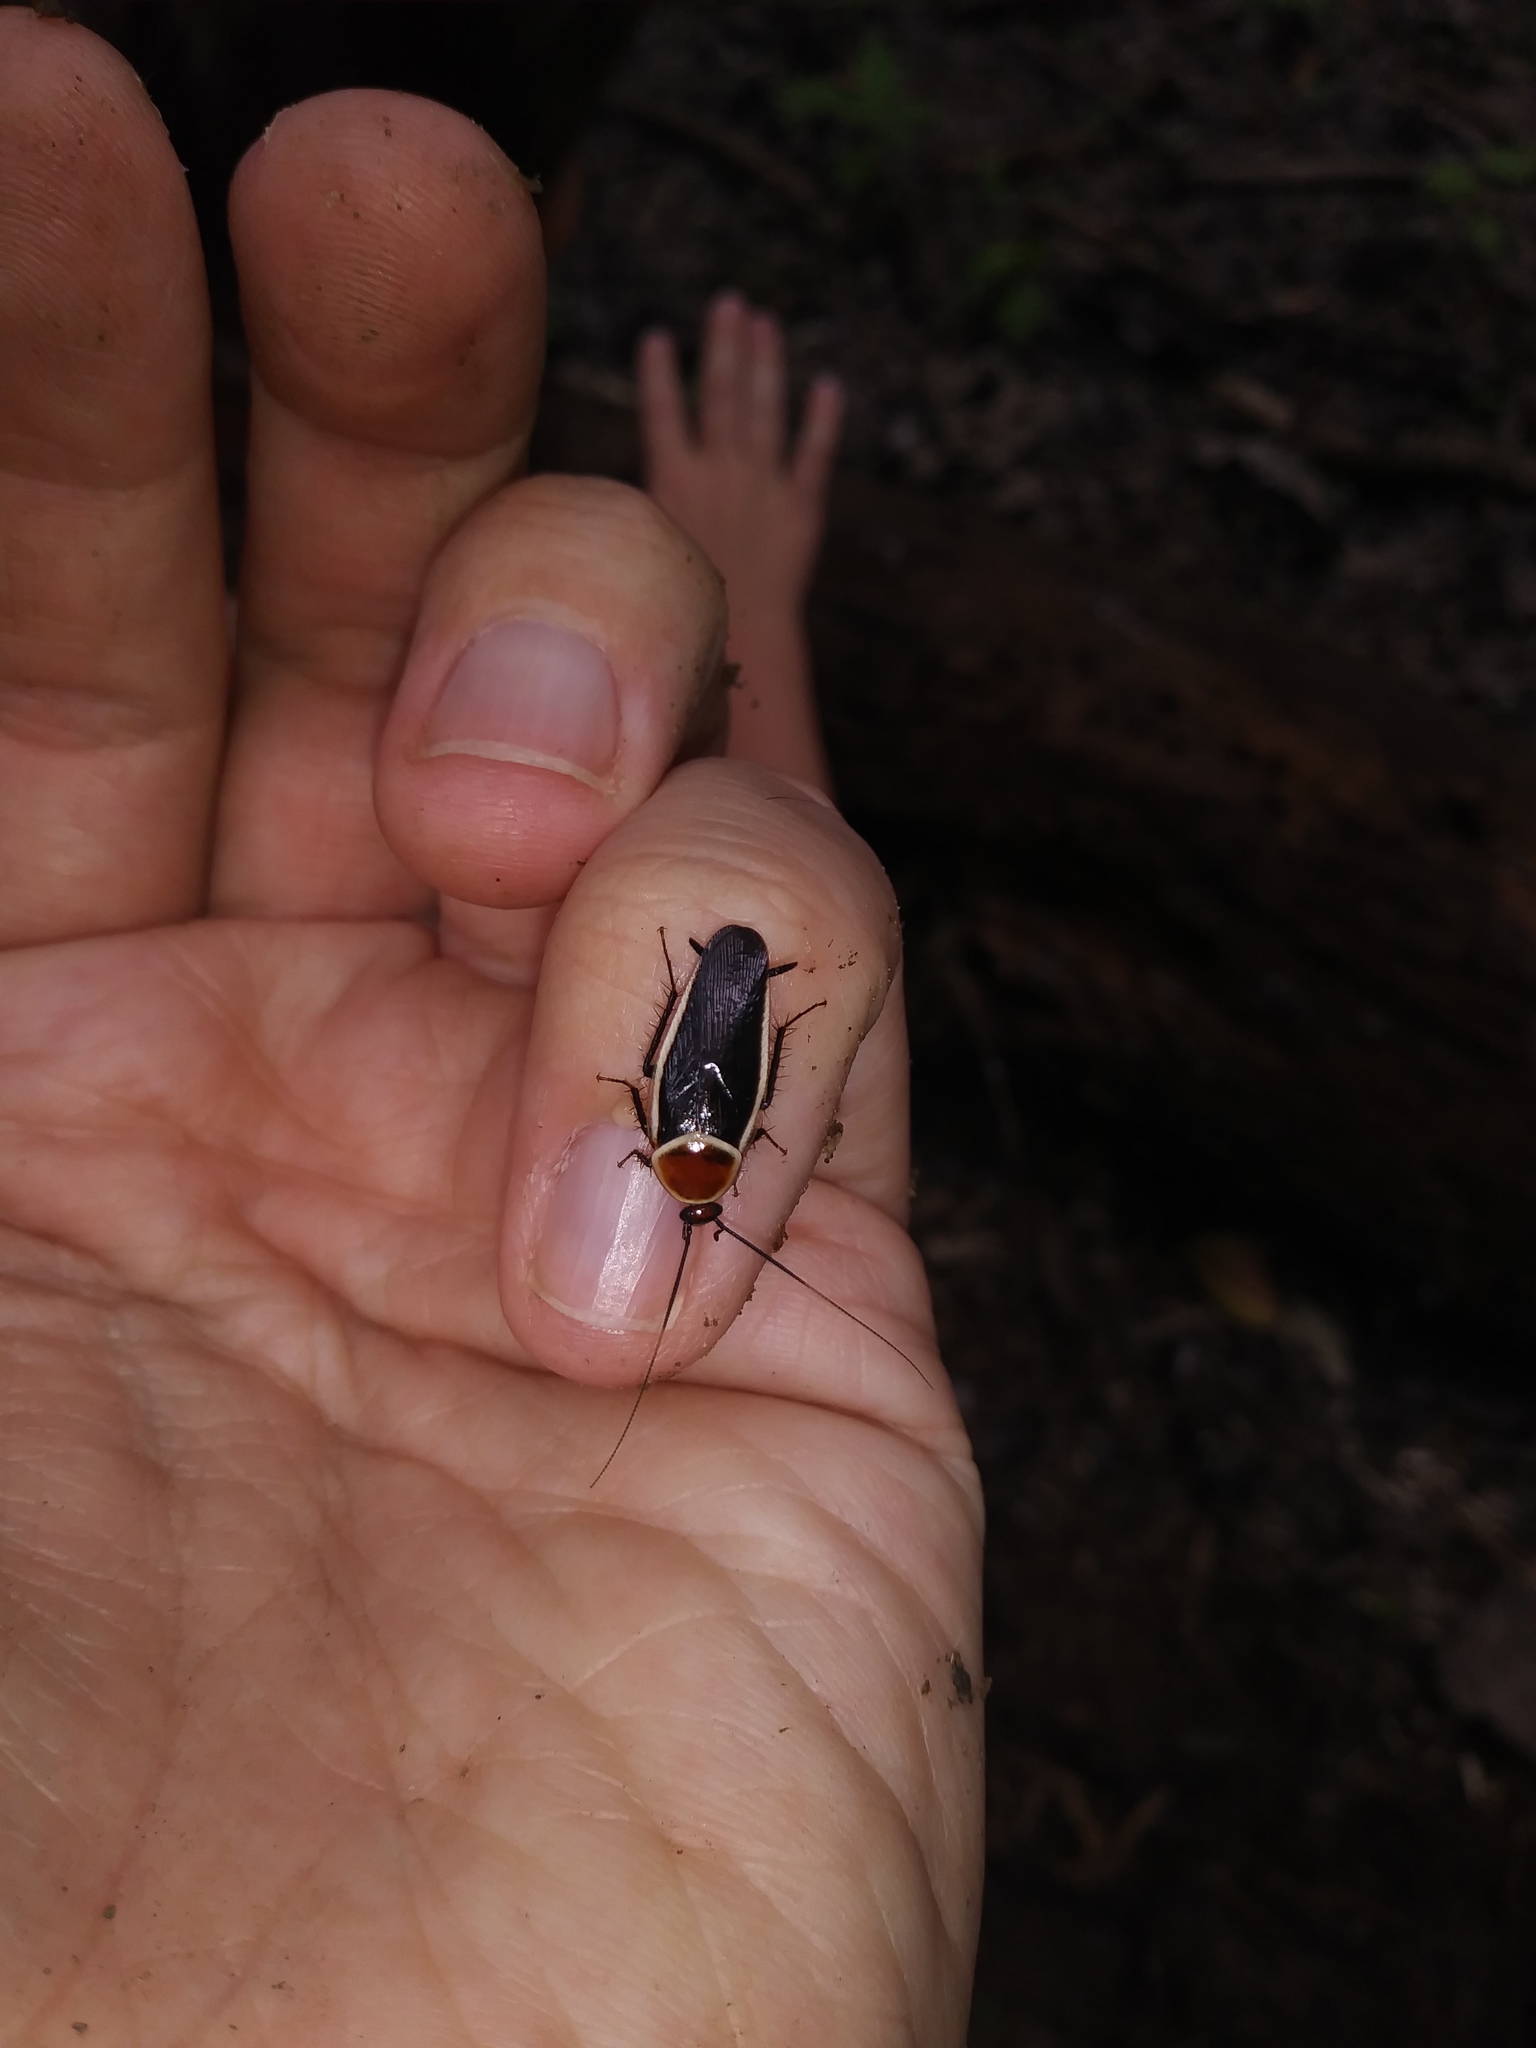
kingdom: Animalia
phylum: Arthropoda
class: Insecta
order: Blattodea
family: Ectobiidae
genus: Pseudomops
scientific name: Pseudomops septentrionalis
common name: Pale-bordered field cockroach
